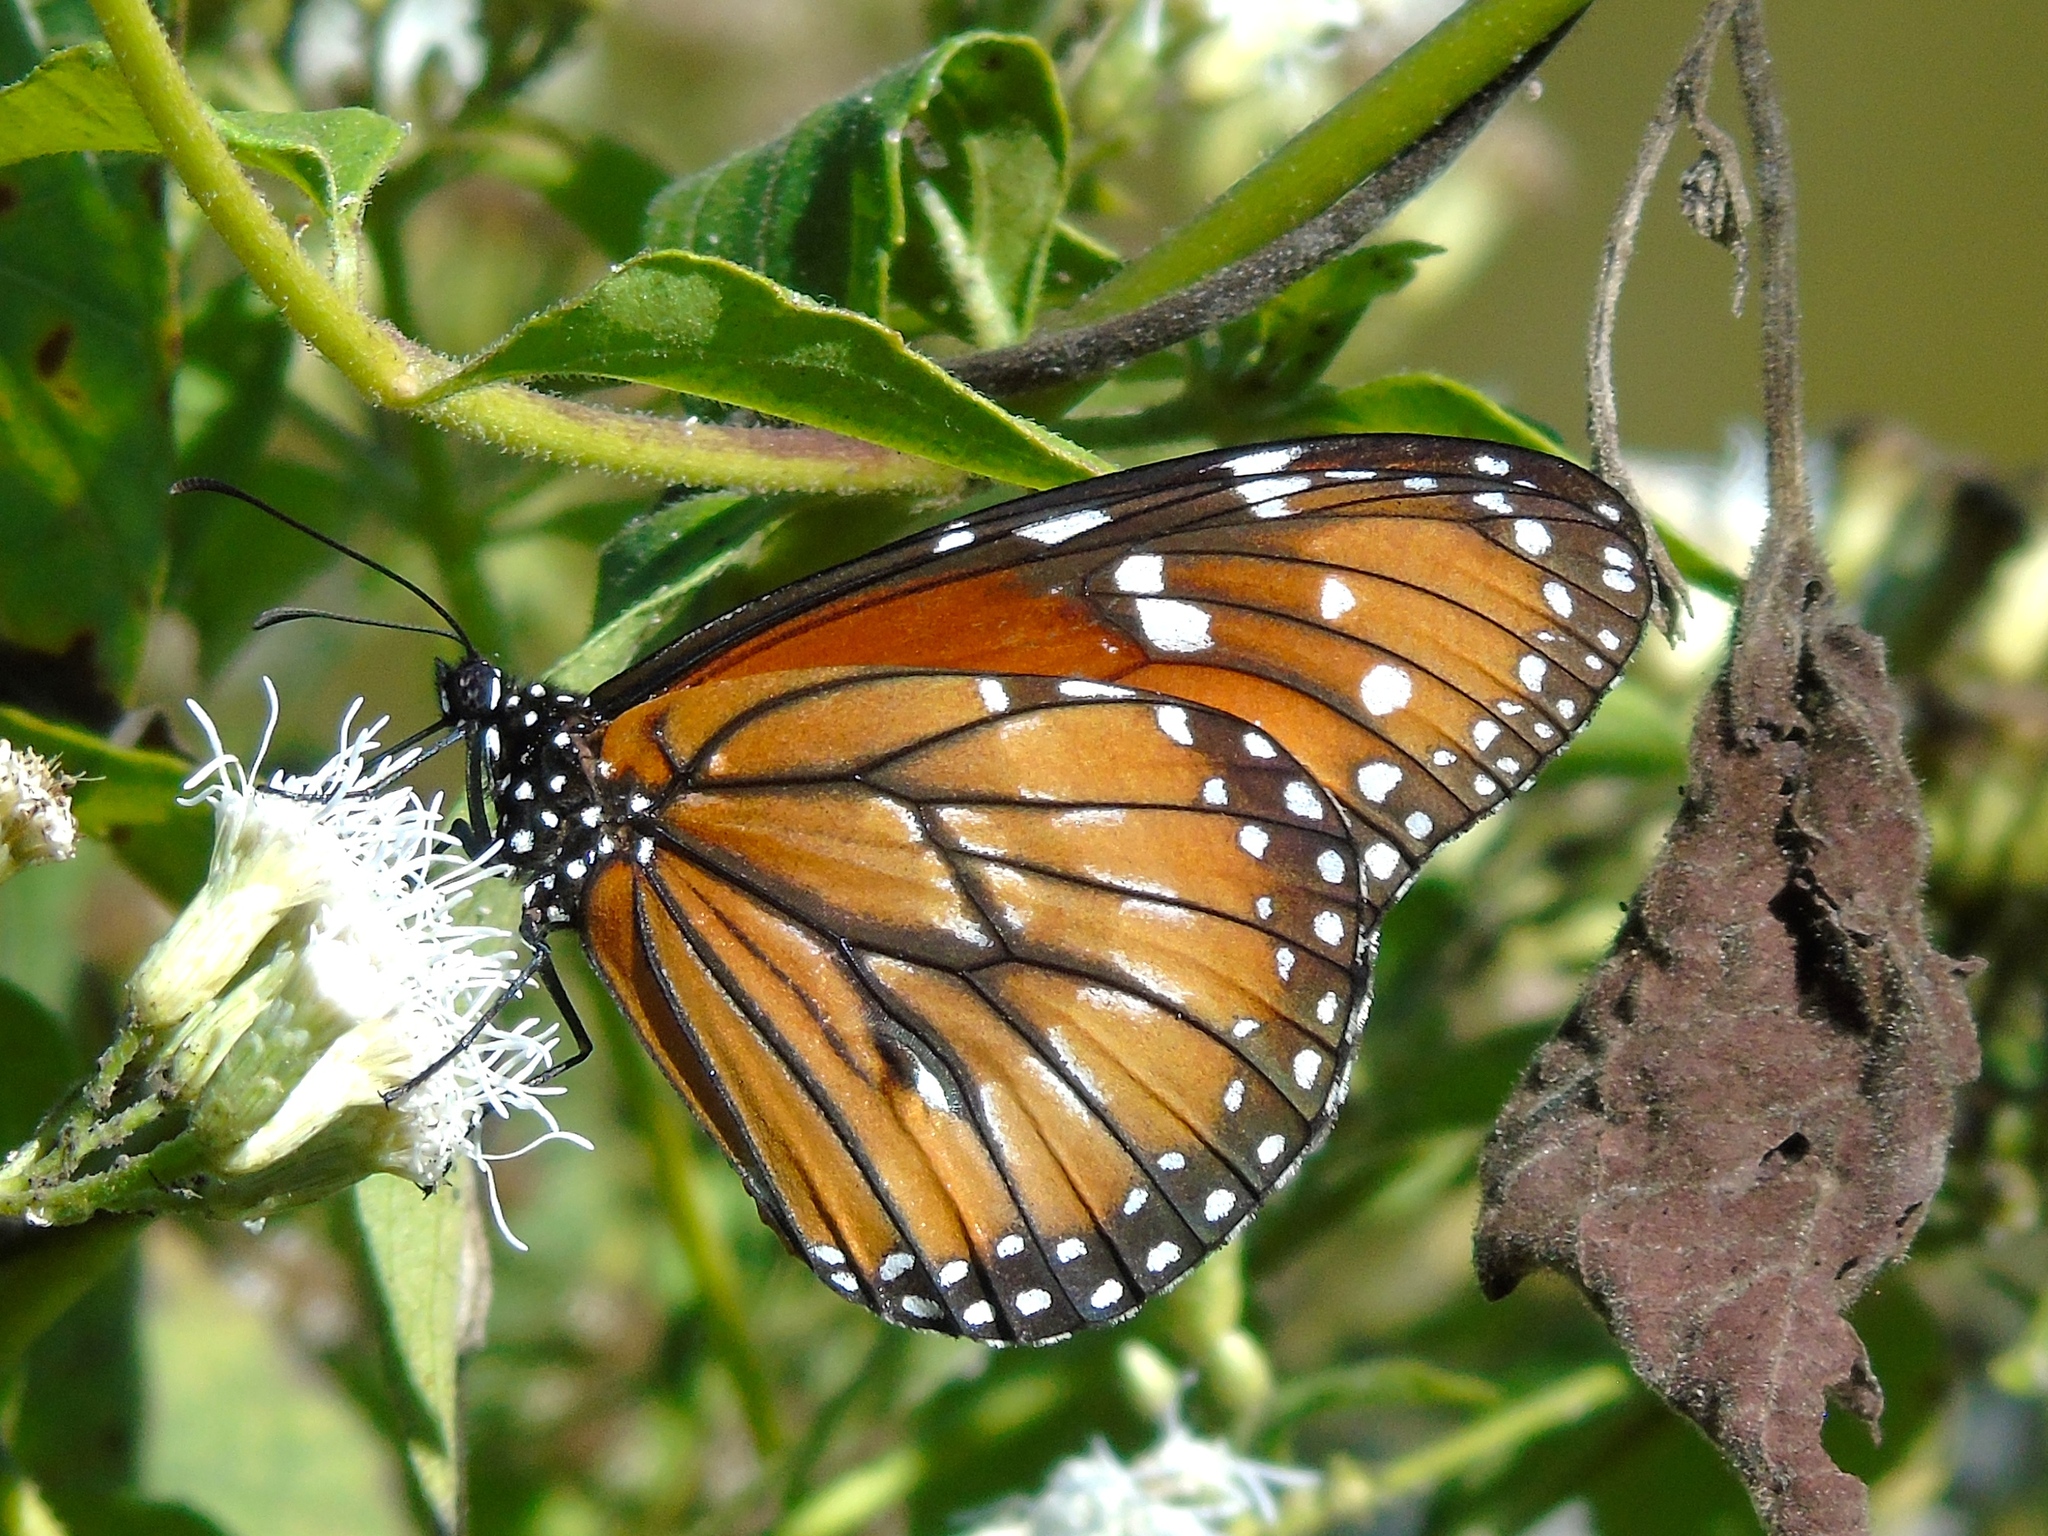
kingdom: Animalia
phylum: Arthropoda
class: Insecta
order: Lepidoptera
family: Nymphalidae
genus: Danaus
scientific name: Danaus eresimus
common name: Soldier
